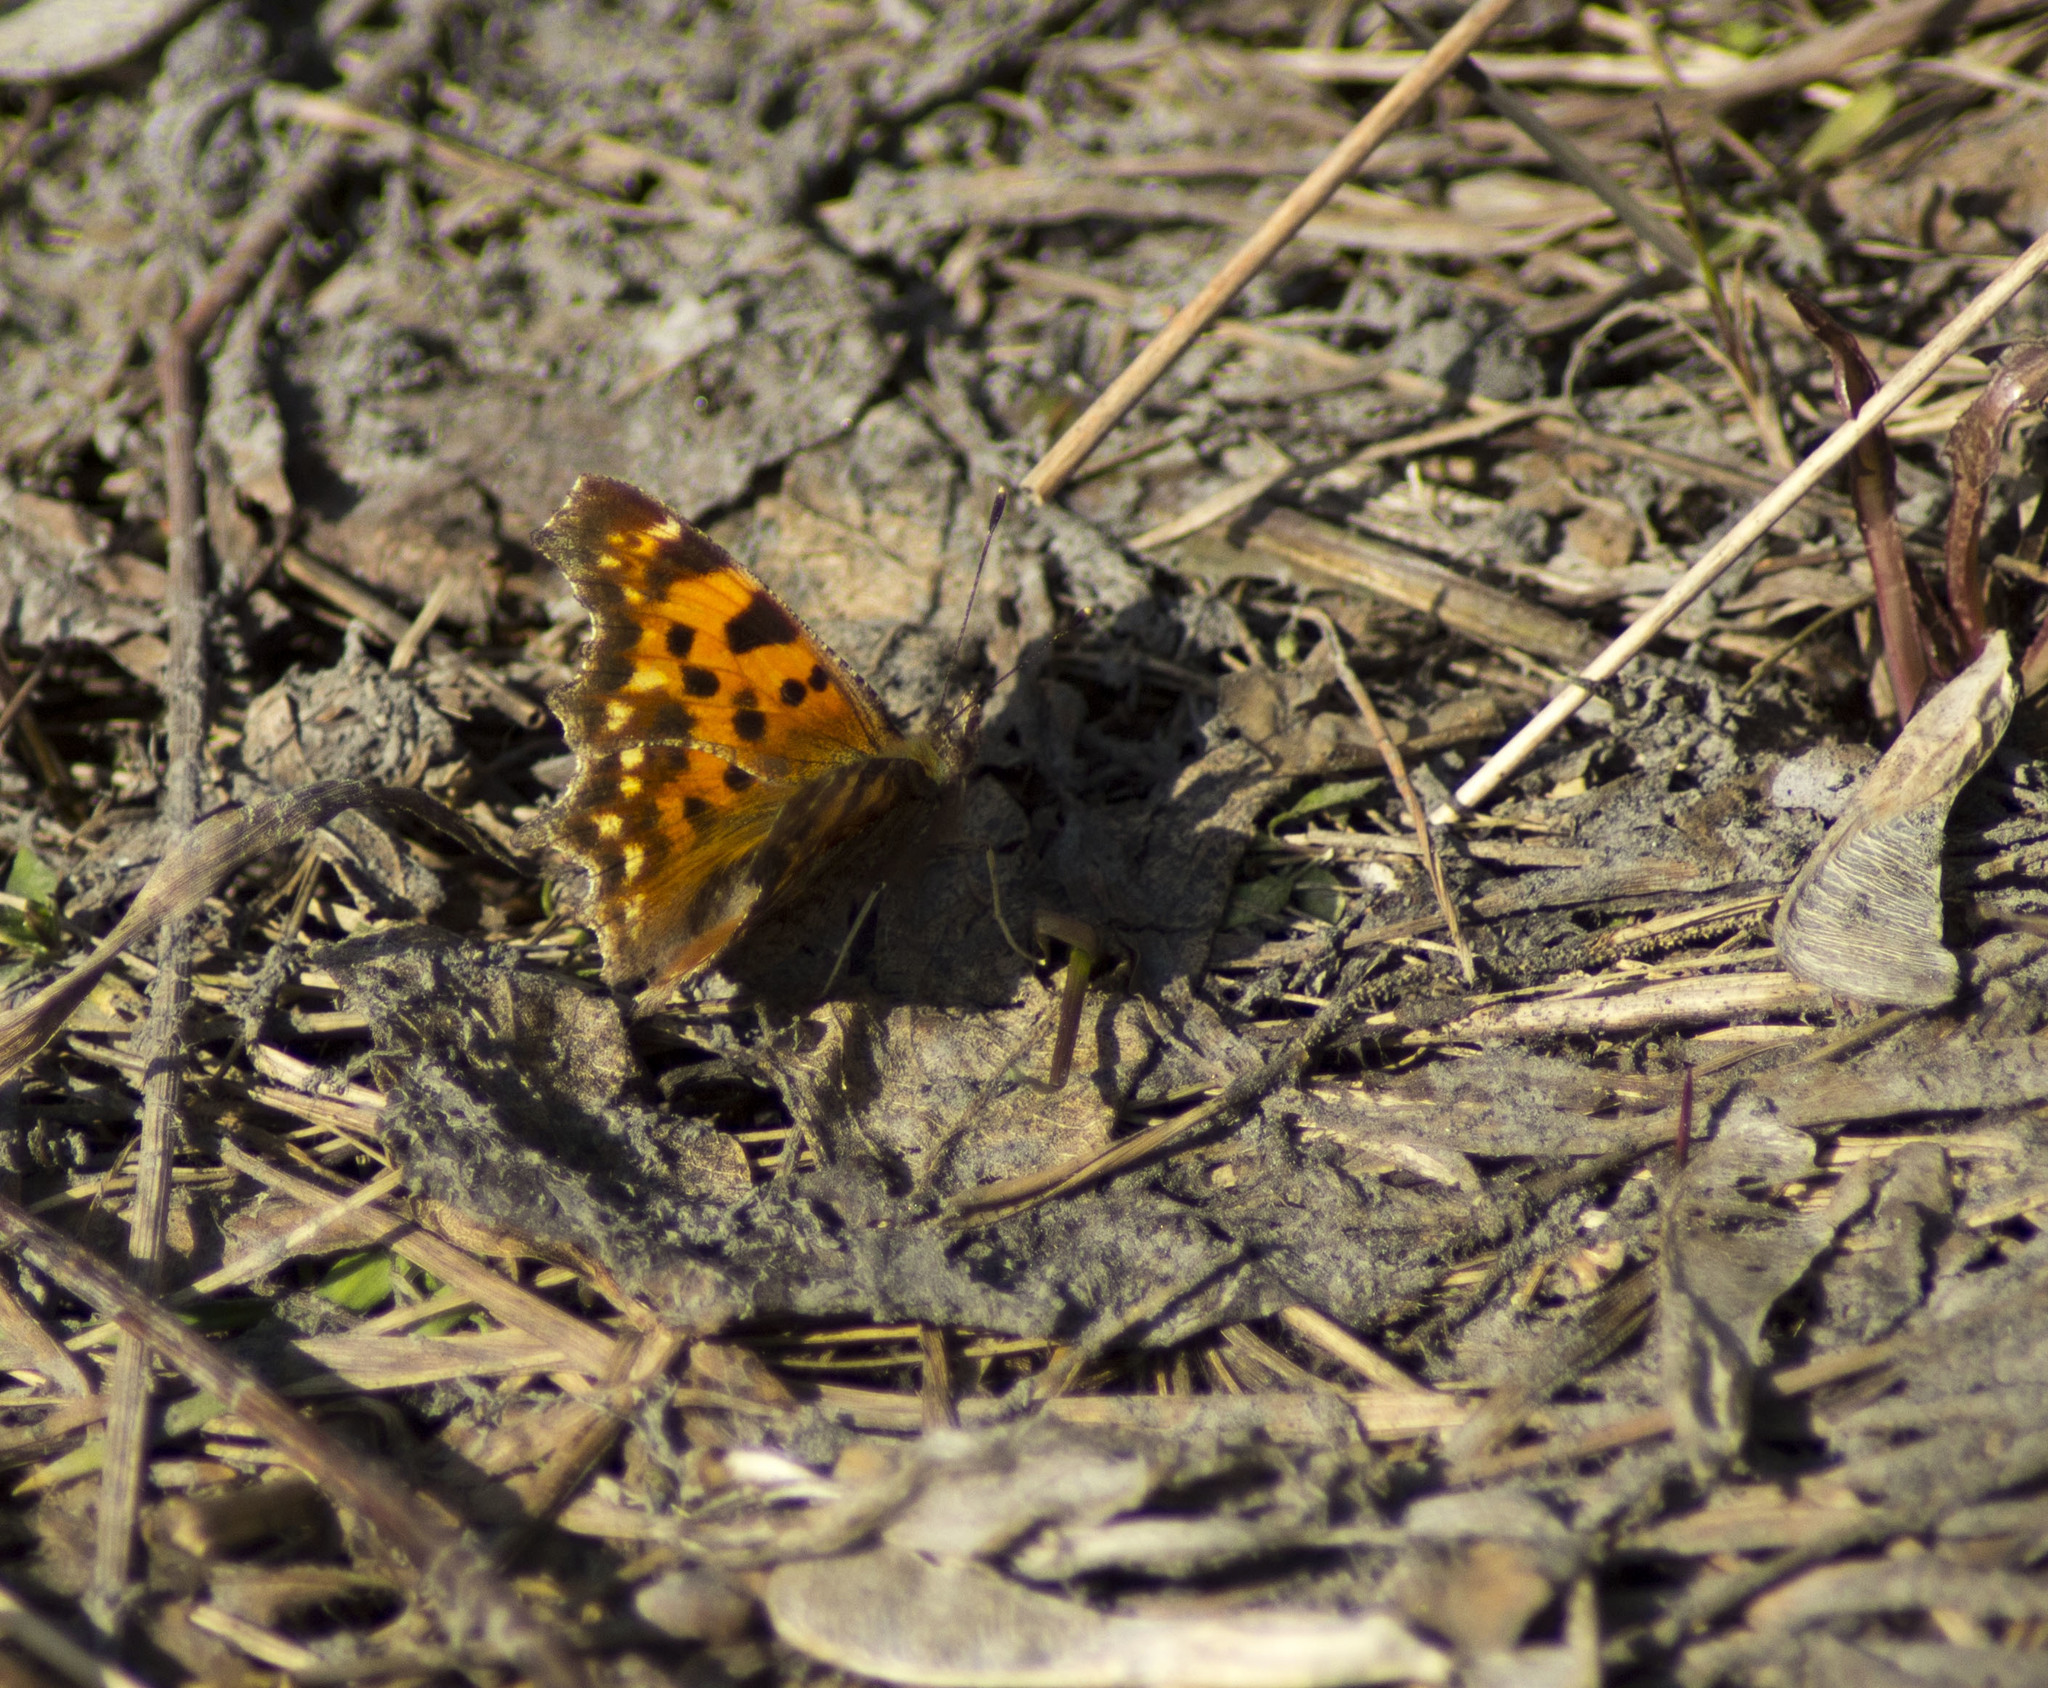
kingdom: Animalia
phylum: Arthropoda
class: Insecta
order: Lepidoptera
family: Nymphalidae
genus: Polygonia
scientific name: Polygonia c-album
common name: Comma
